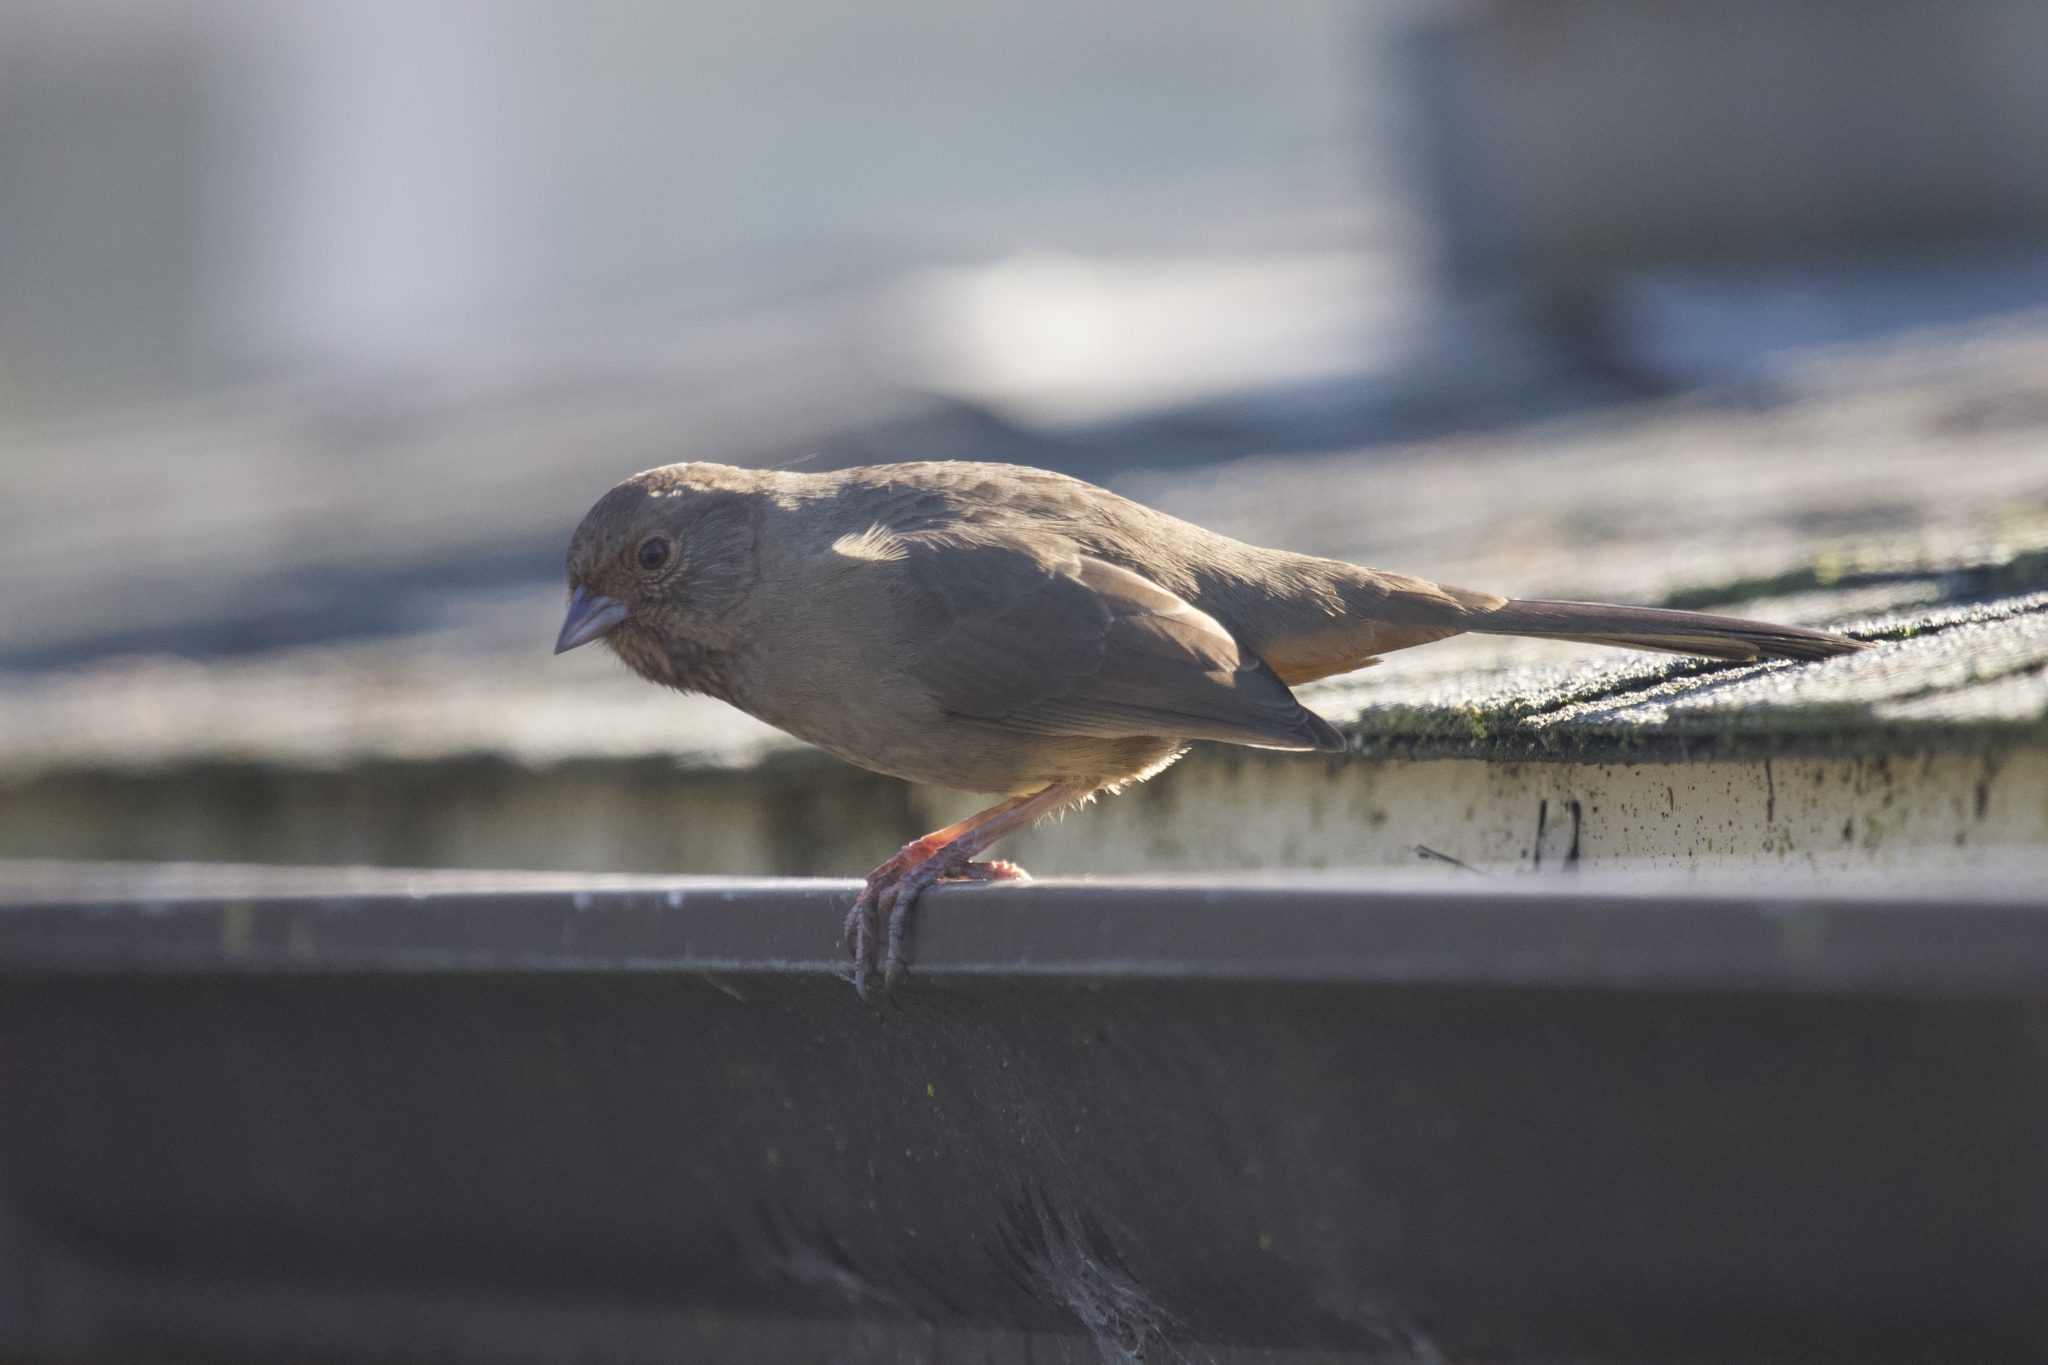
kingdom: Animalia
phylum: Chordata
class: Aves
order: Passeriformes
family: Passerellidae
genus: Melozone
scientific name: Melozone crissalis
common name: California towhee
